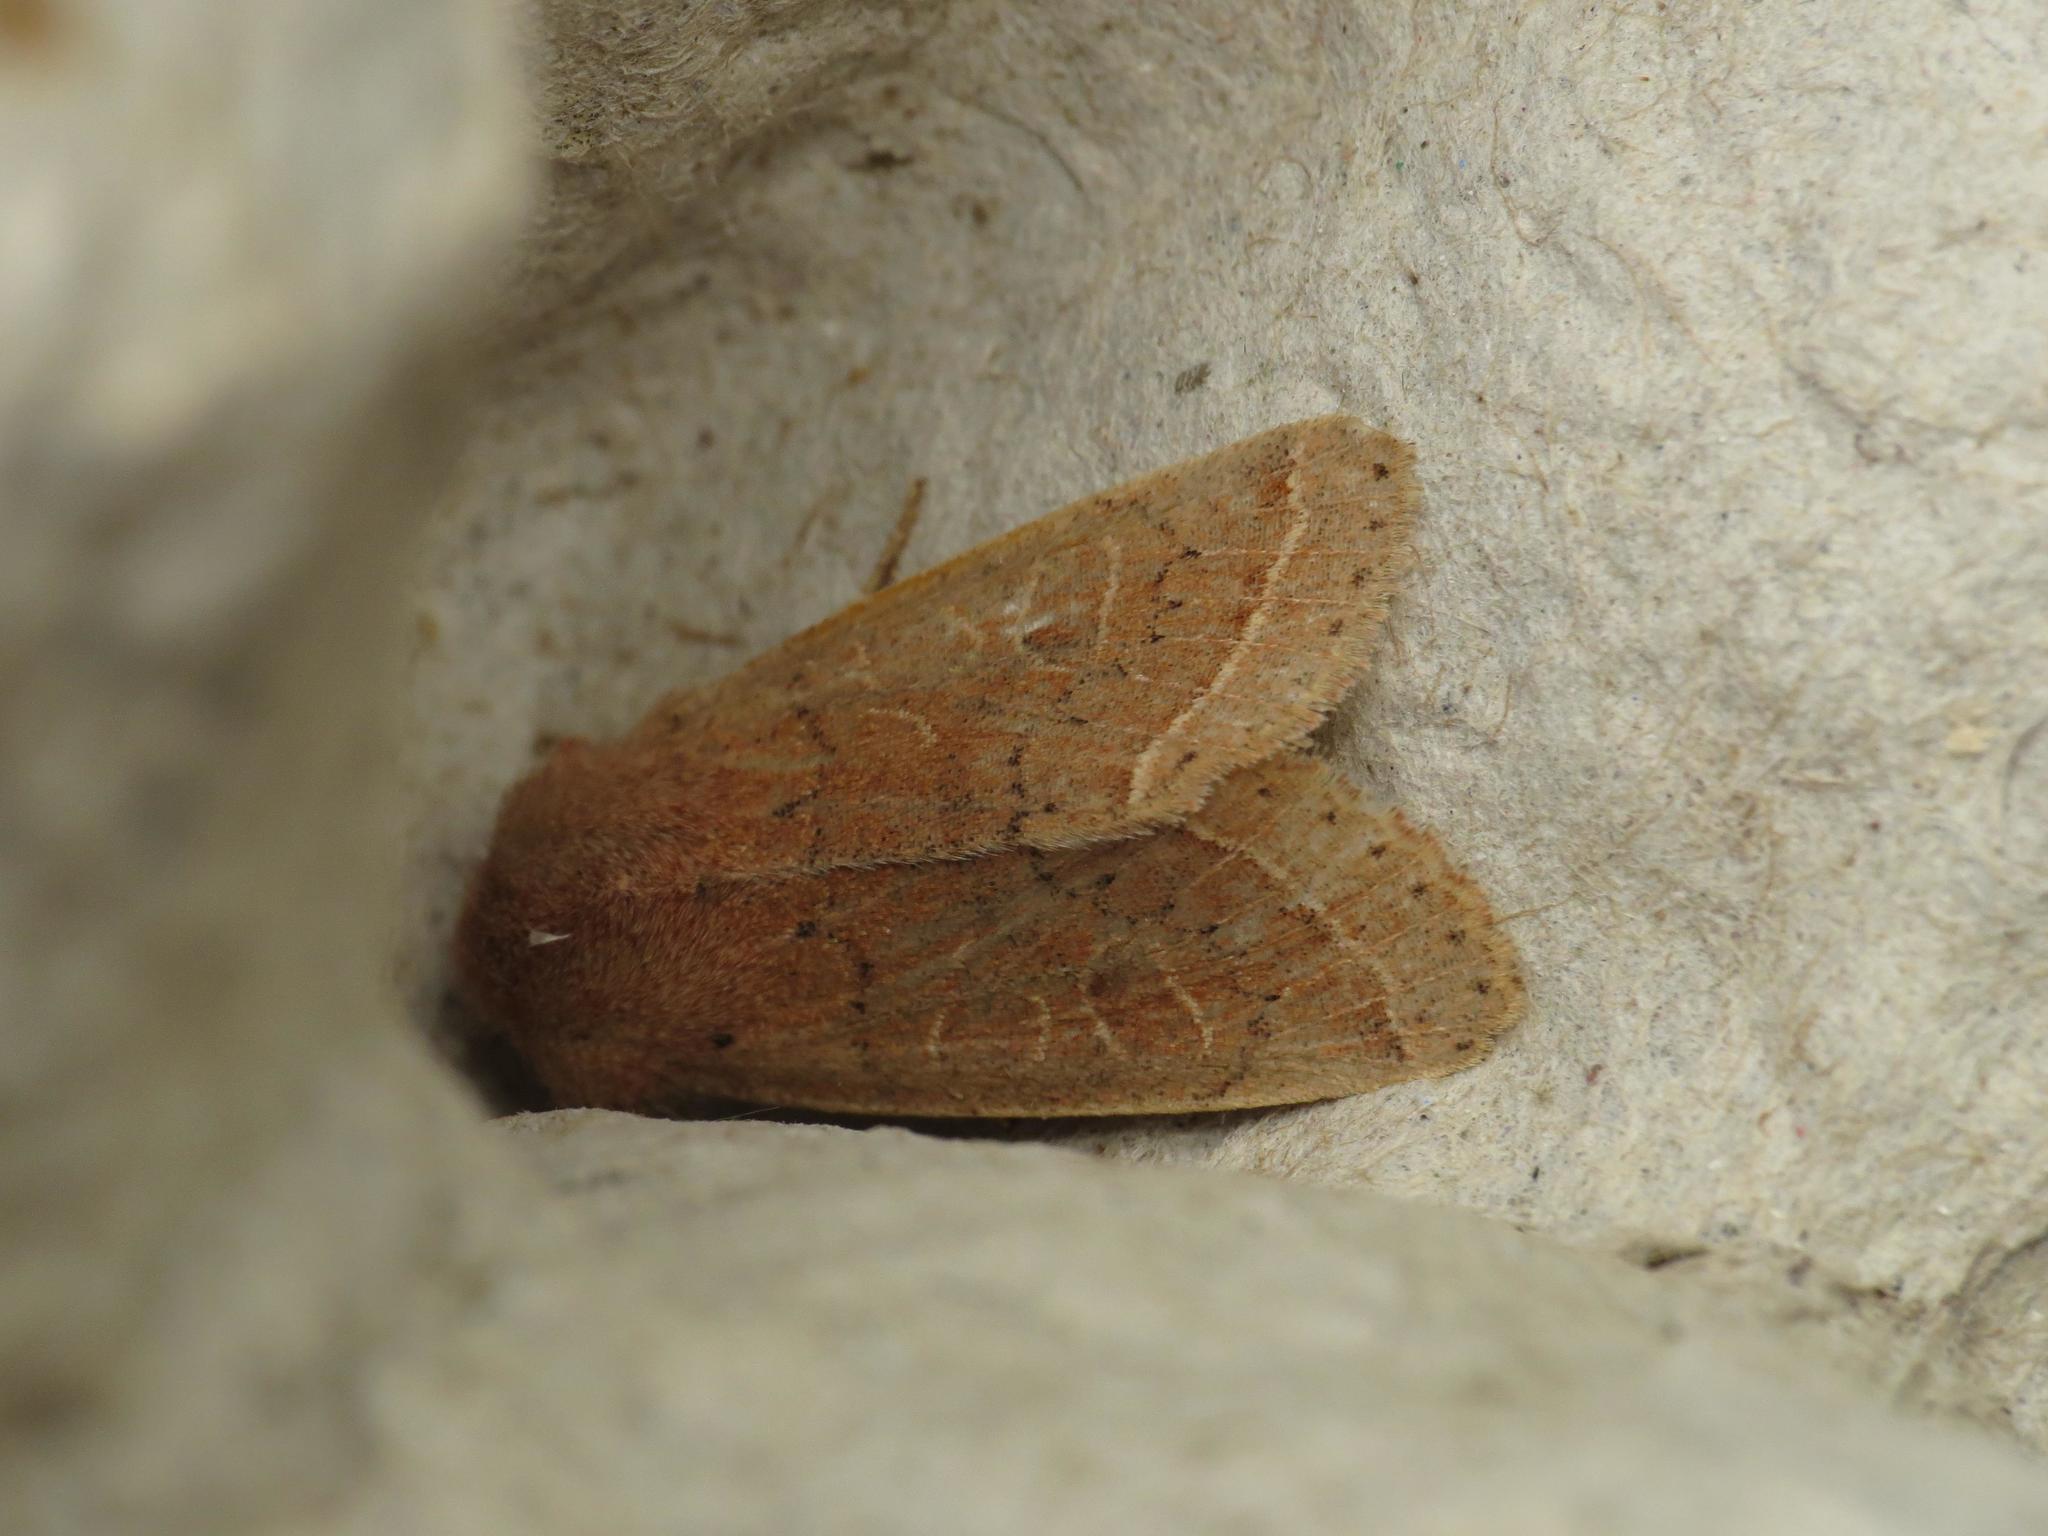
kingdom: Animalia
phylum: Arthropoda
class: Insecta
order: Lepidoptera
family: Noctuidae
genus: Orthosia
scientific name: Orthosia cerasi
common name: Common quaker
